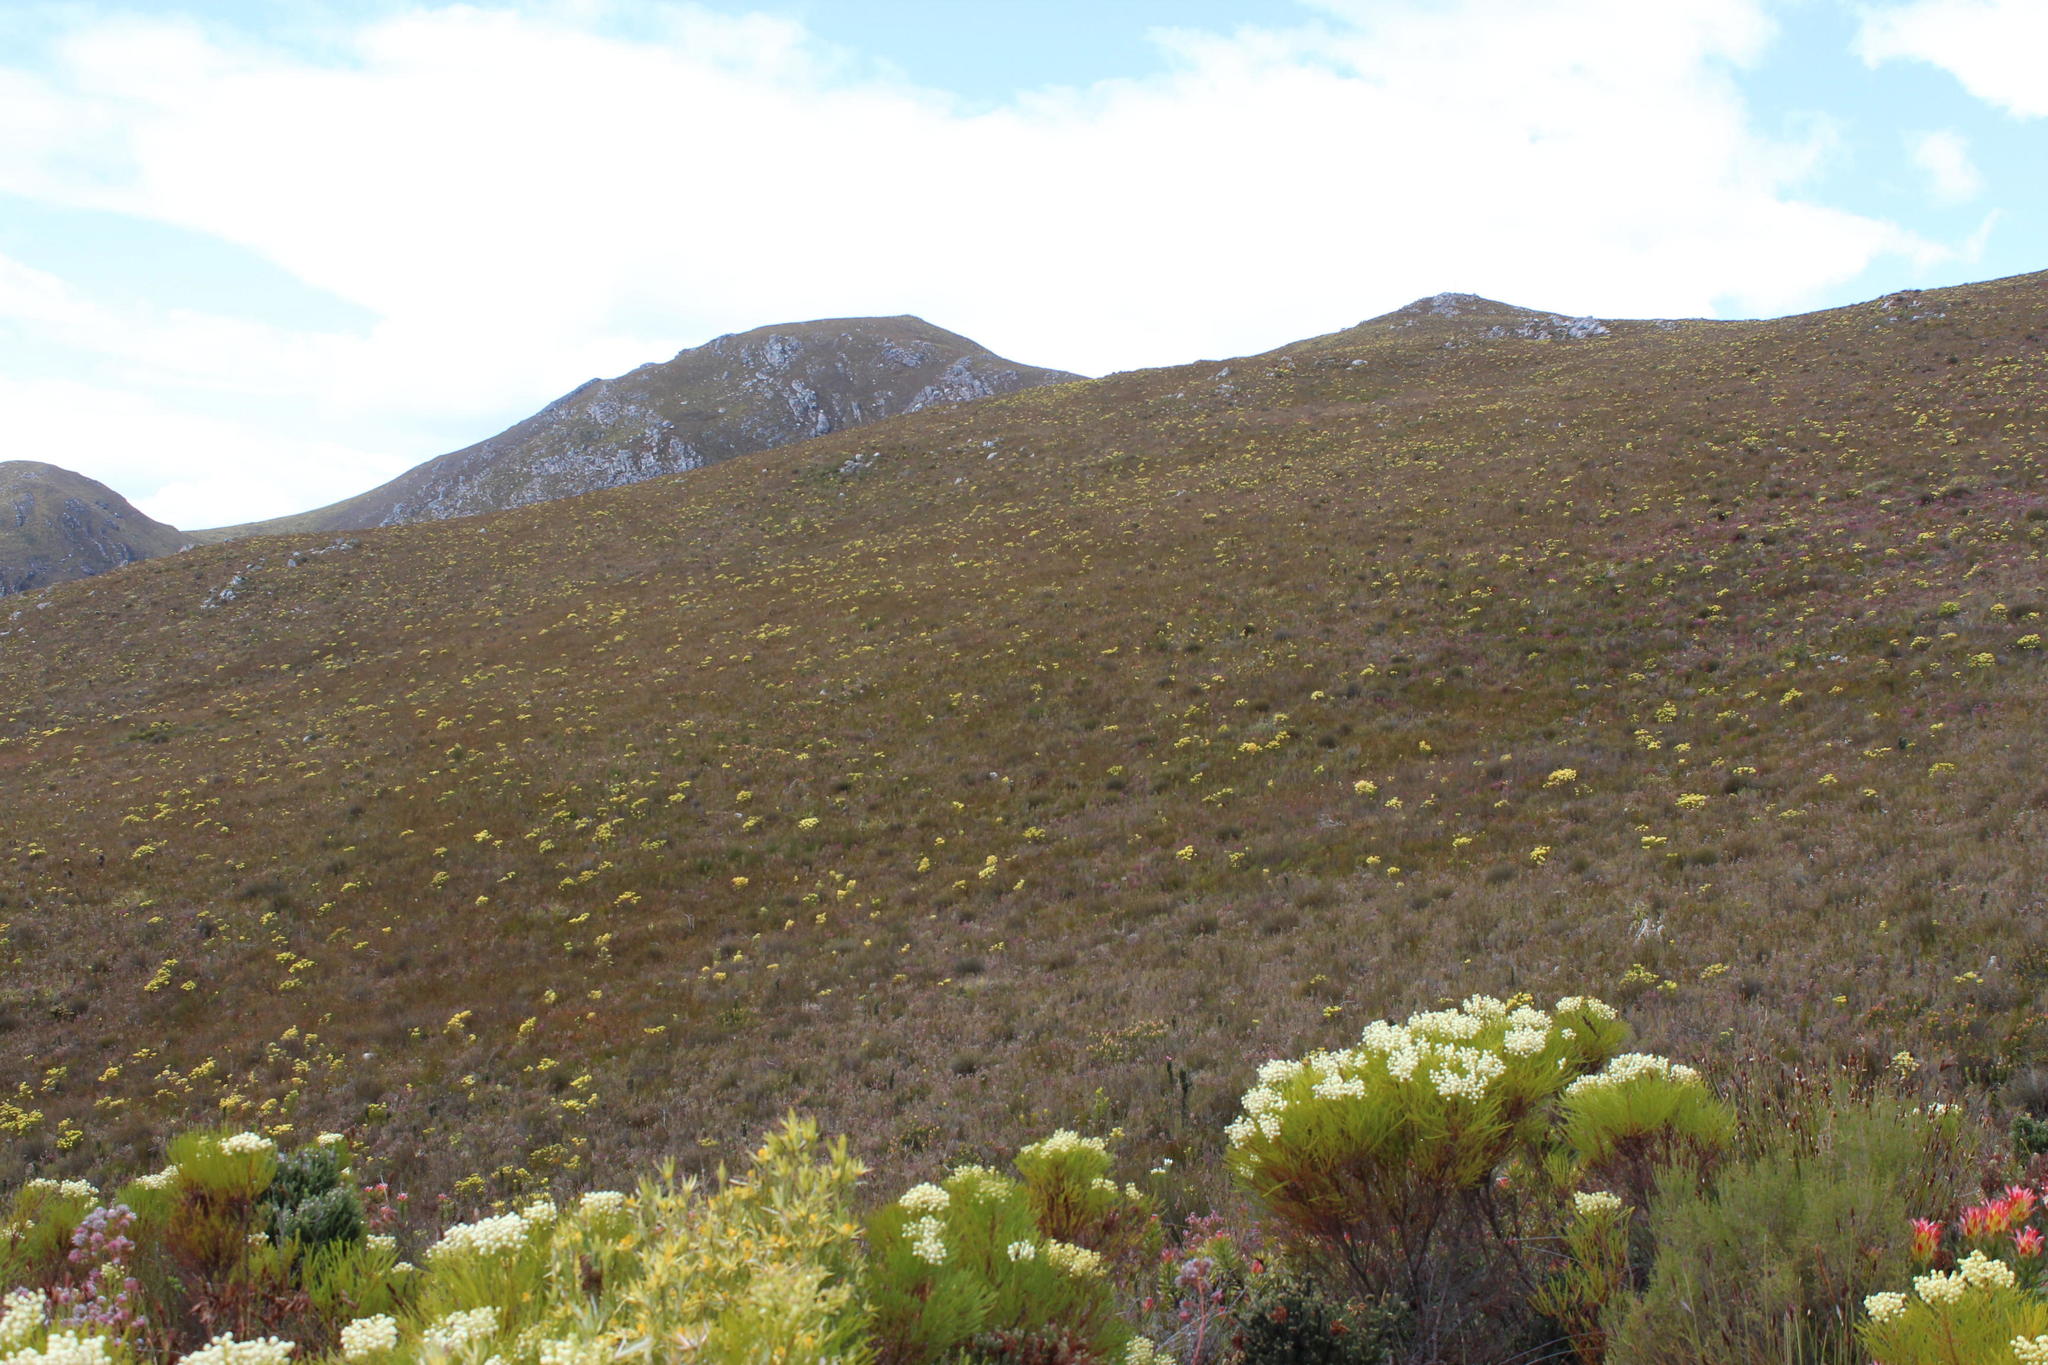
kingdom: Plantae
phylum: Tracheophyta
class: Magnoliopsida
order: Proteales
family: Proteaceae
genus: Leucadendron
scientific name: Leucadendron gandogeri
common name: Broad-leaf conebush
